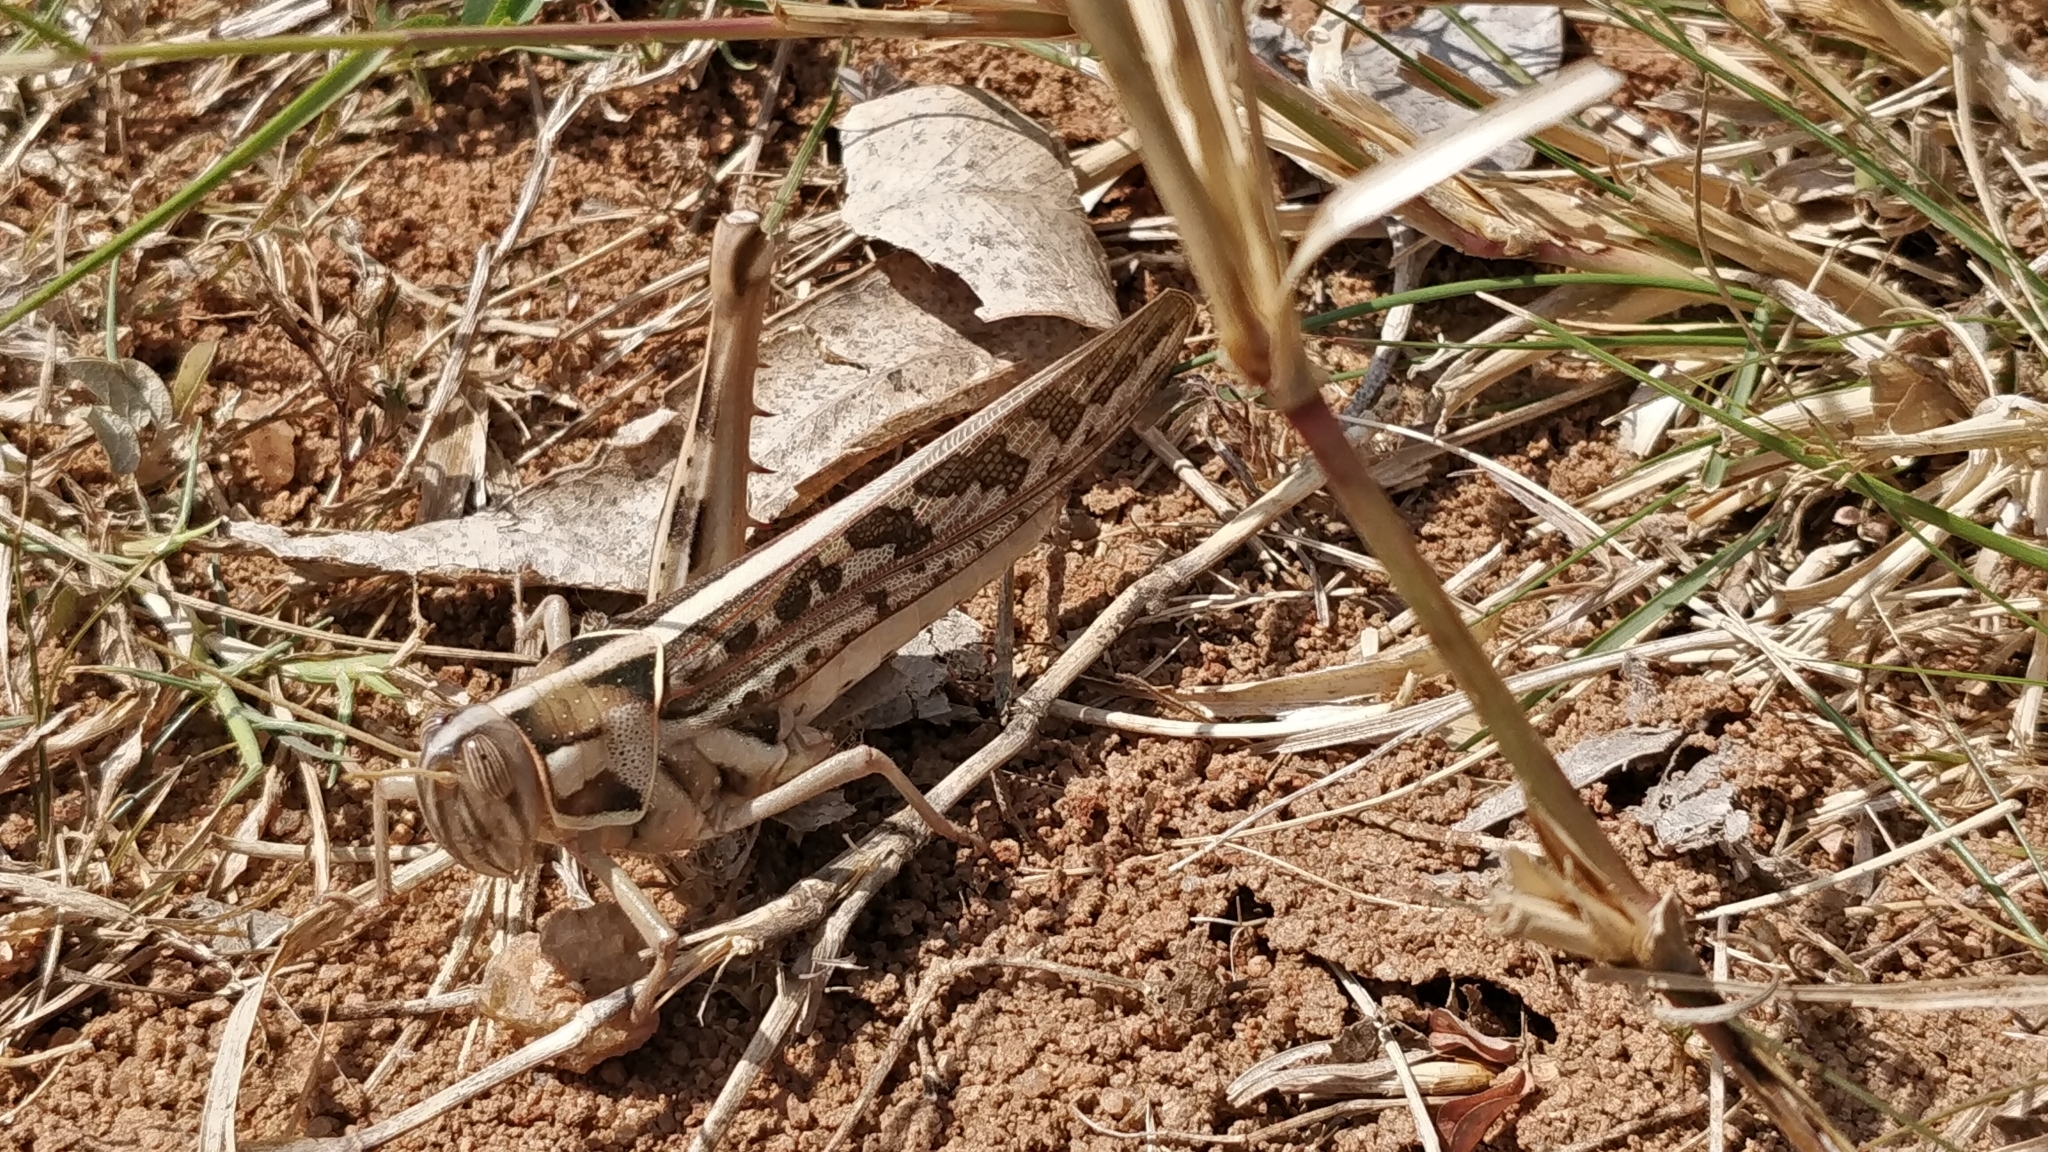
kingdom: Animalia
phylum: Arthropoda
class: Insecta
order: Orthoptera
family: Acrididae
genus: Cyrtacanthacris
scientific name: Cyrtacanthacris tatarica
